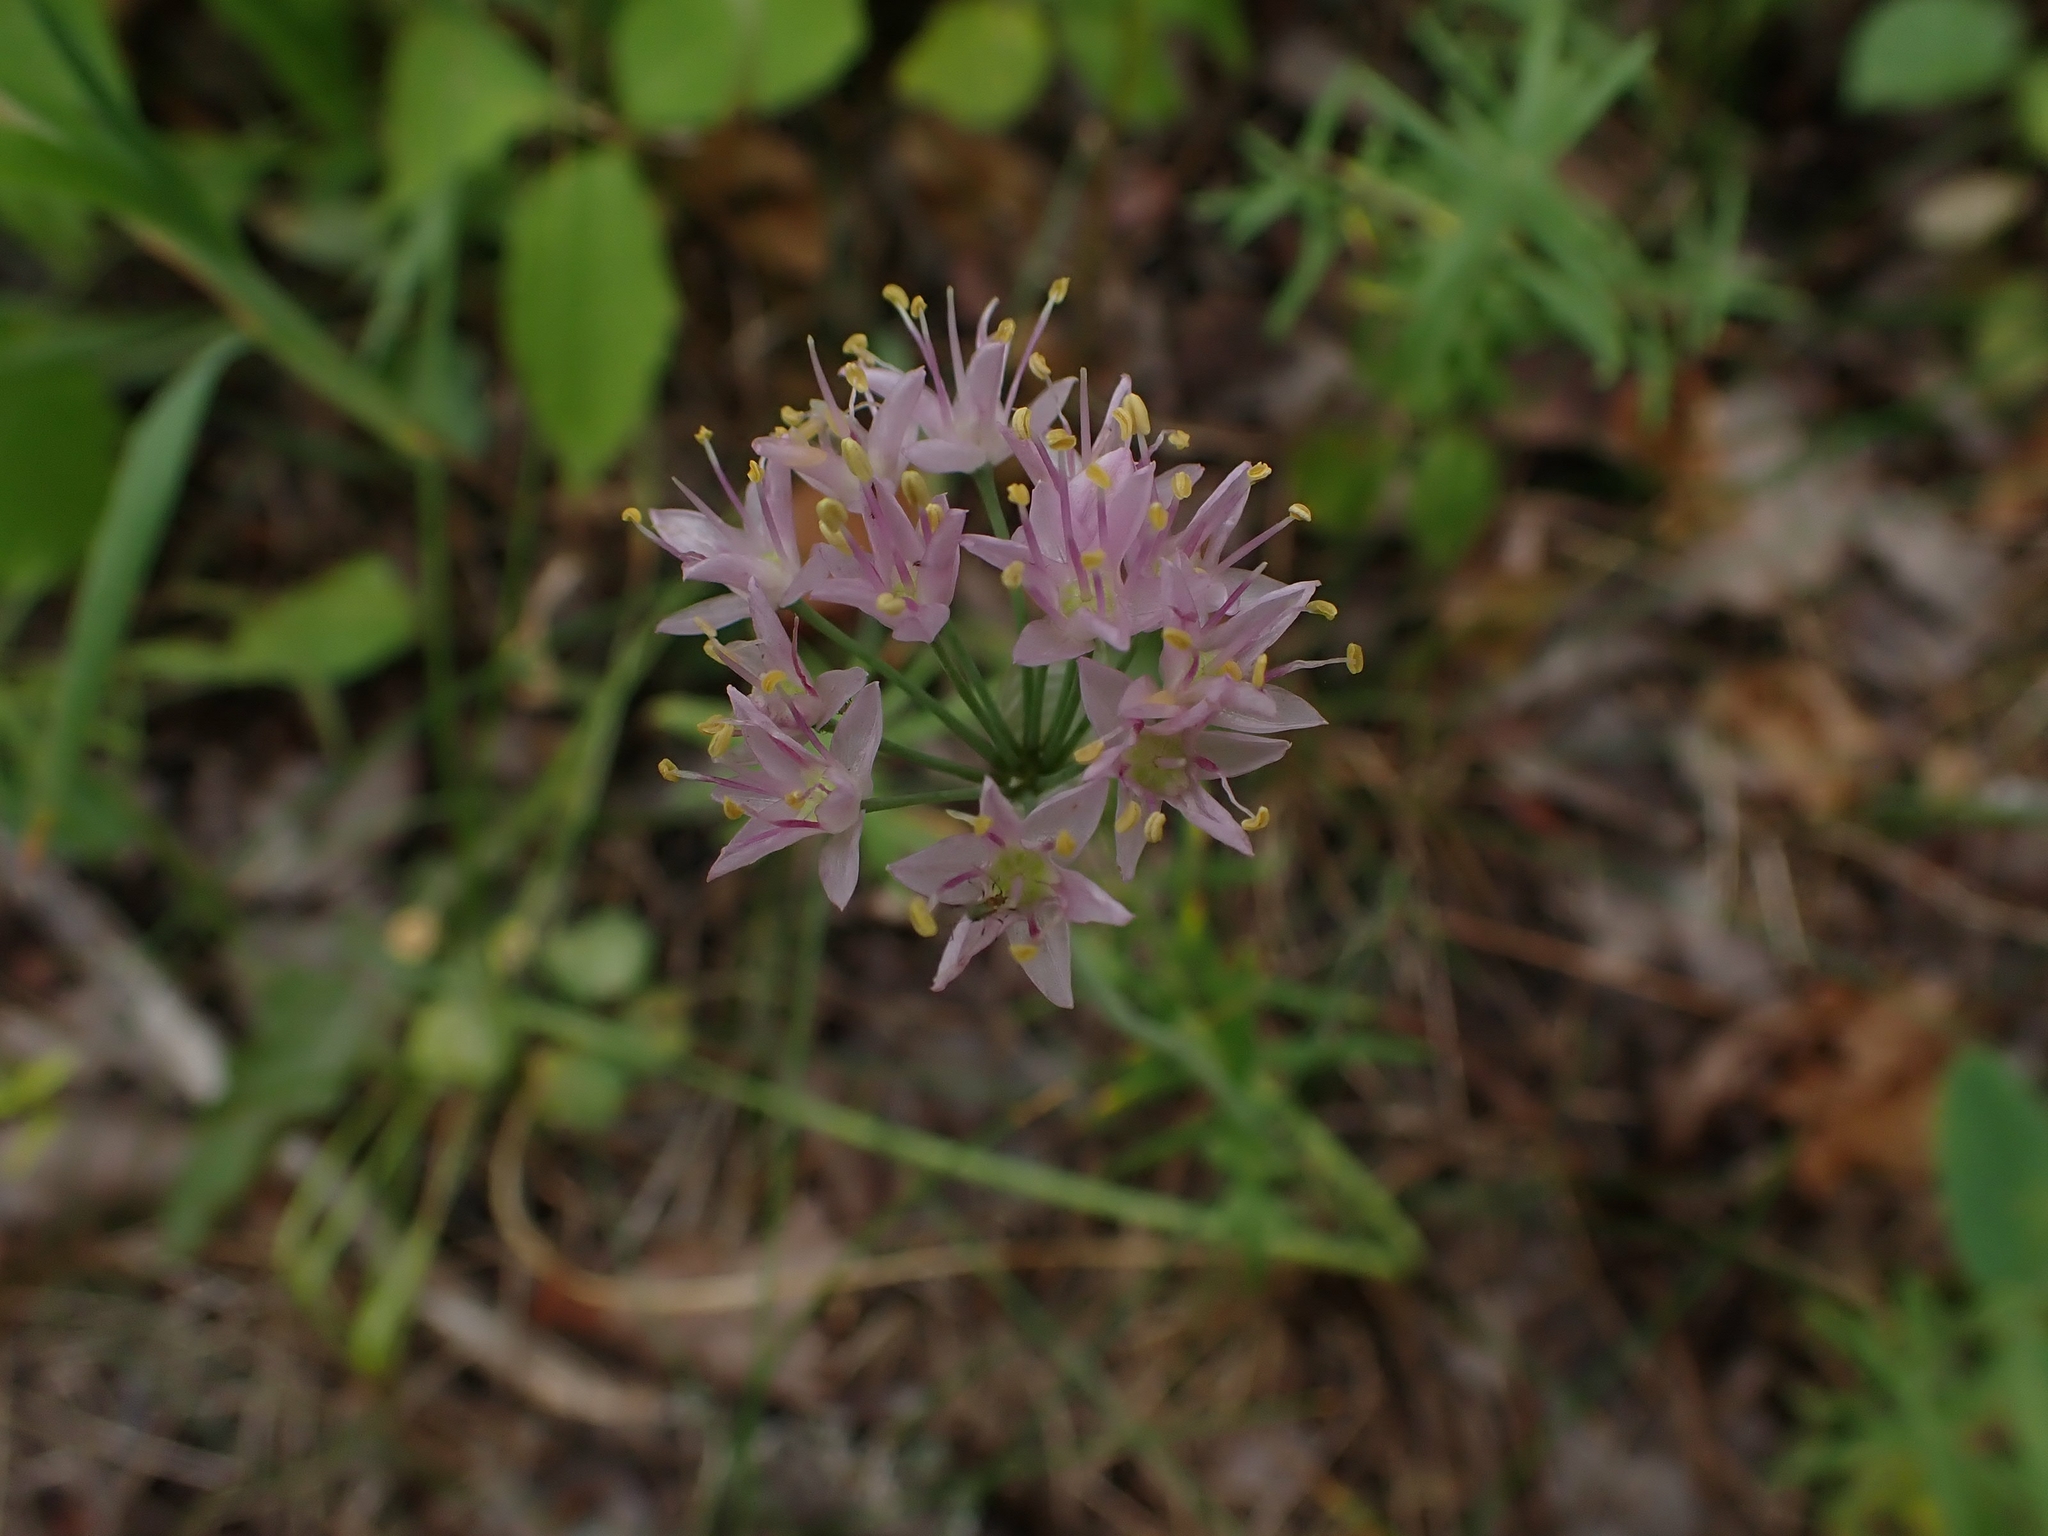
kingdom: Plantae
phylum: Tracheophyta
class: Liliopsida
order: Asparagales
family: Amaryllidaceae
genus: Allium
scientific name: Allium stellatum
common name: Autumn onion
